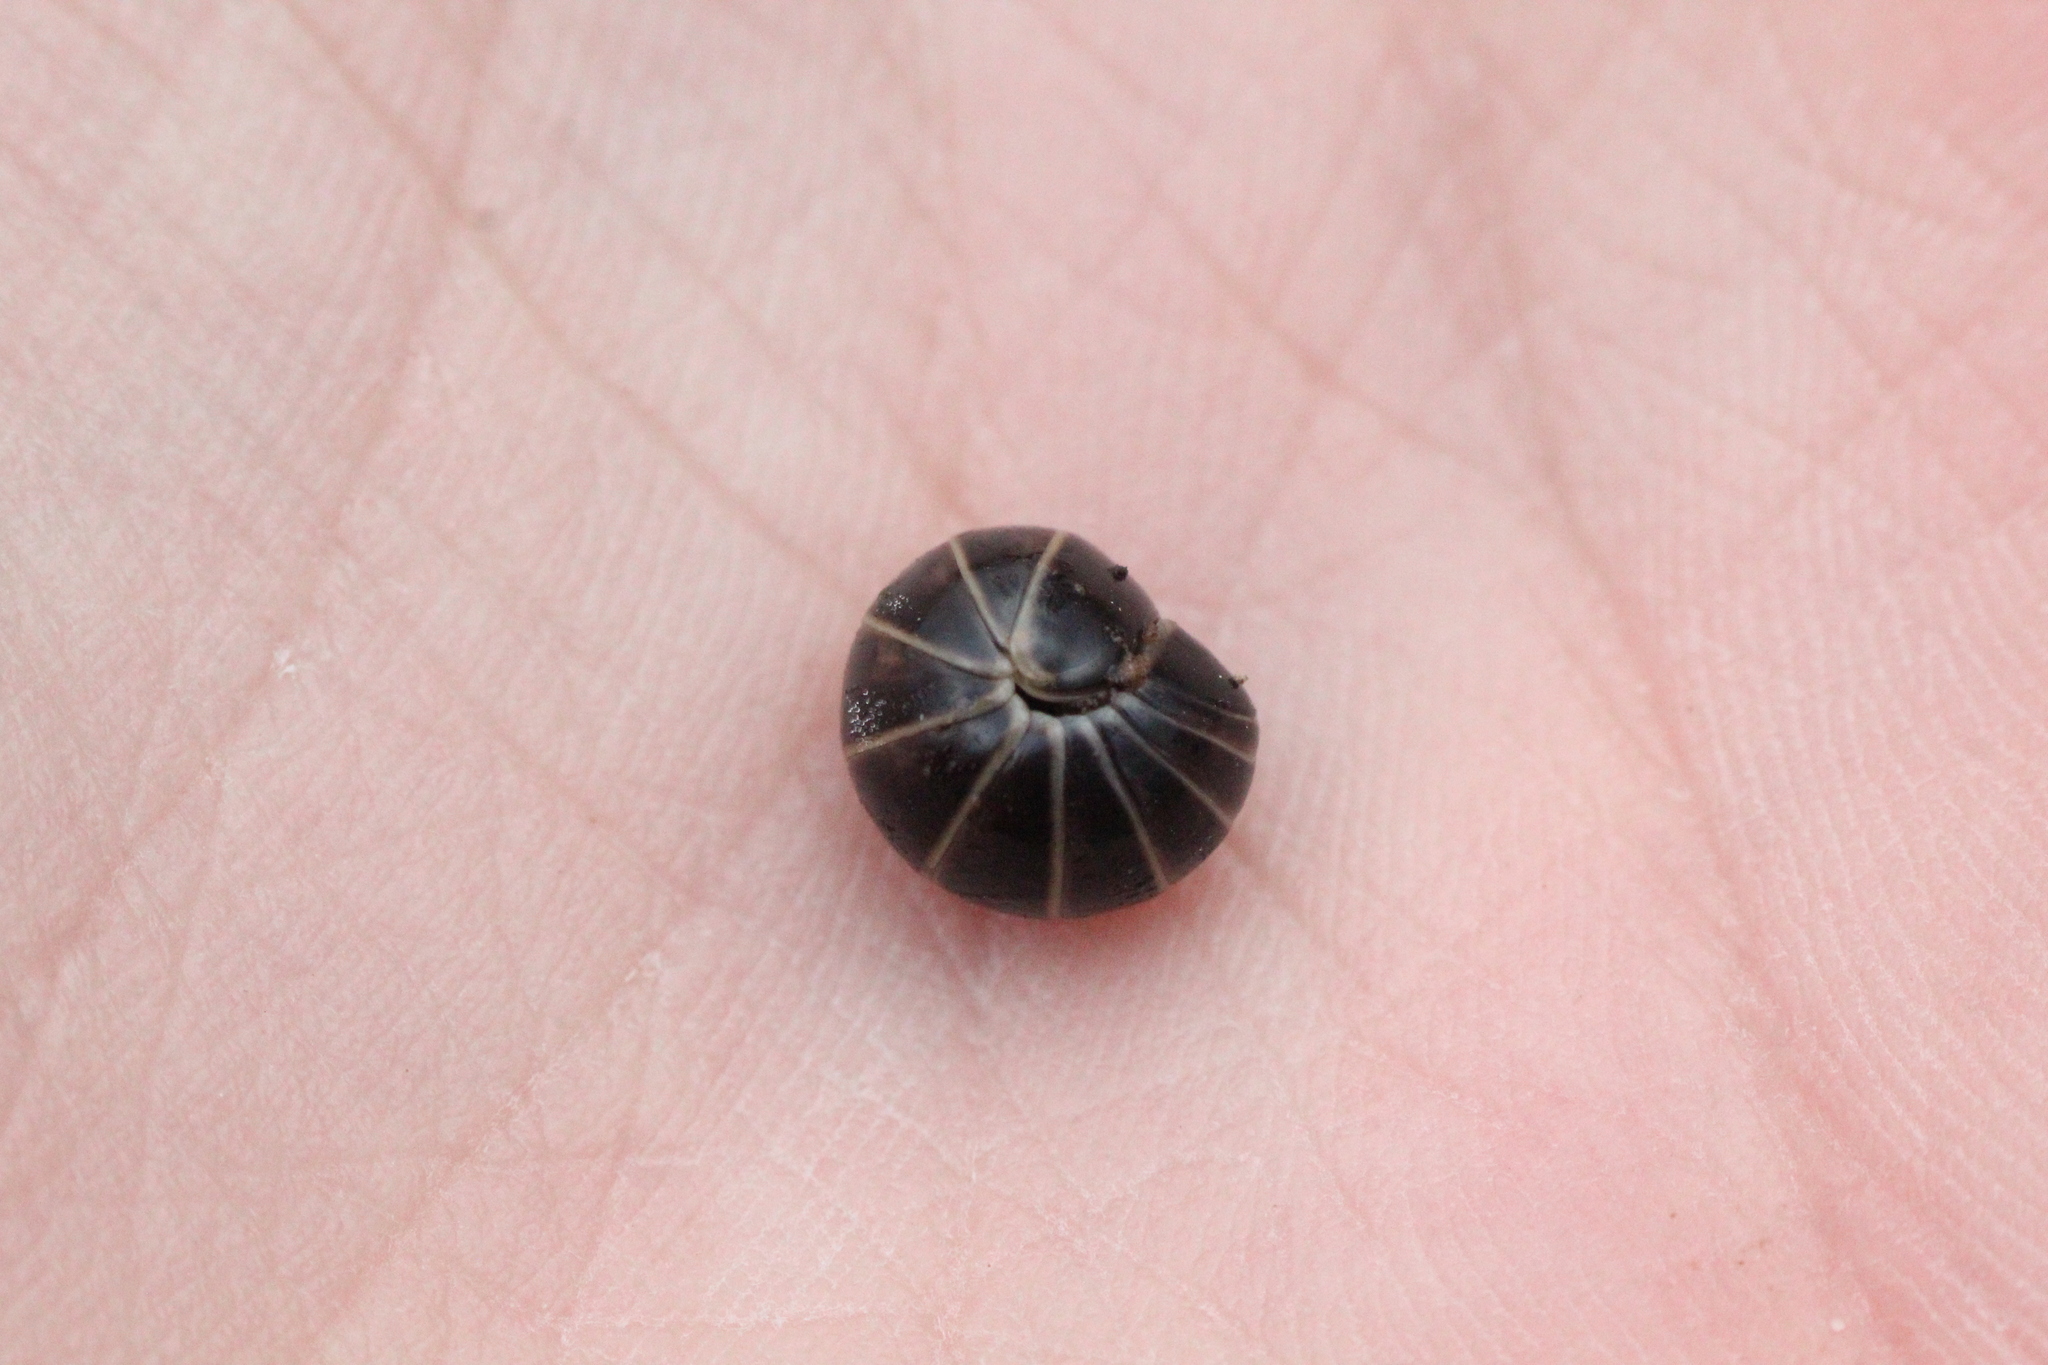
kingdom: Animalia
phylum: Arthropoda
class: Diplopoda
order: Glomerida
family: Glomeridae
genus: Glomeris
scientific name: Glomeris marginata
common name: Bordered pill millipede
